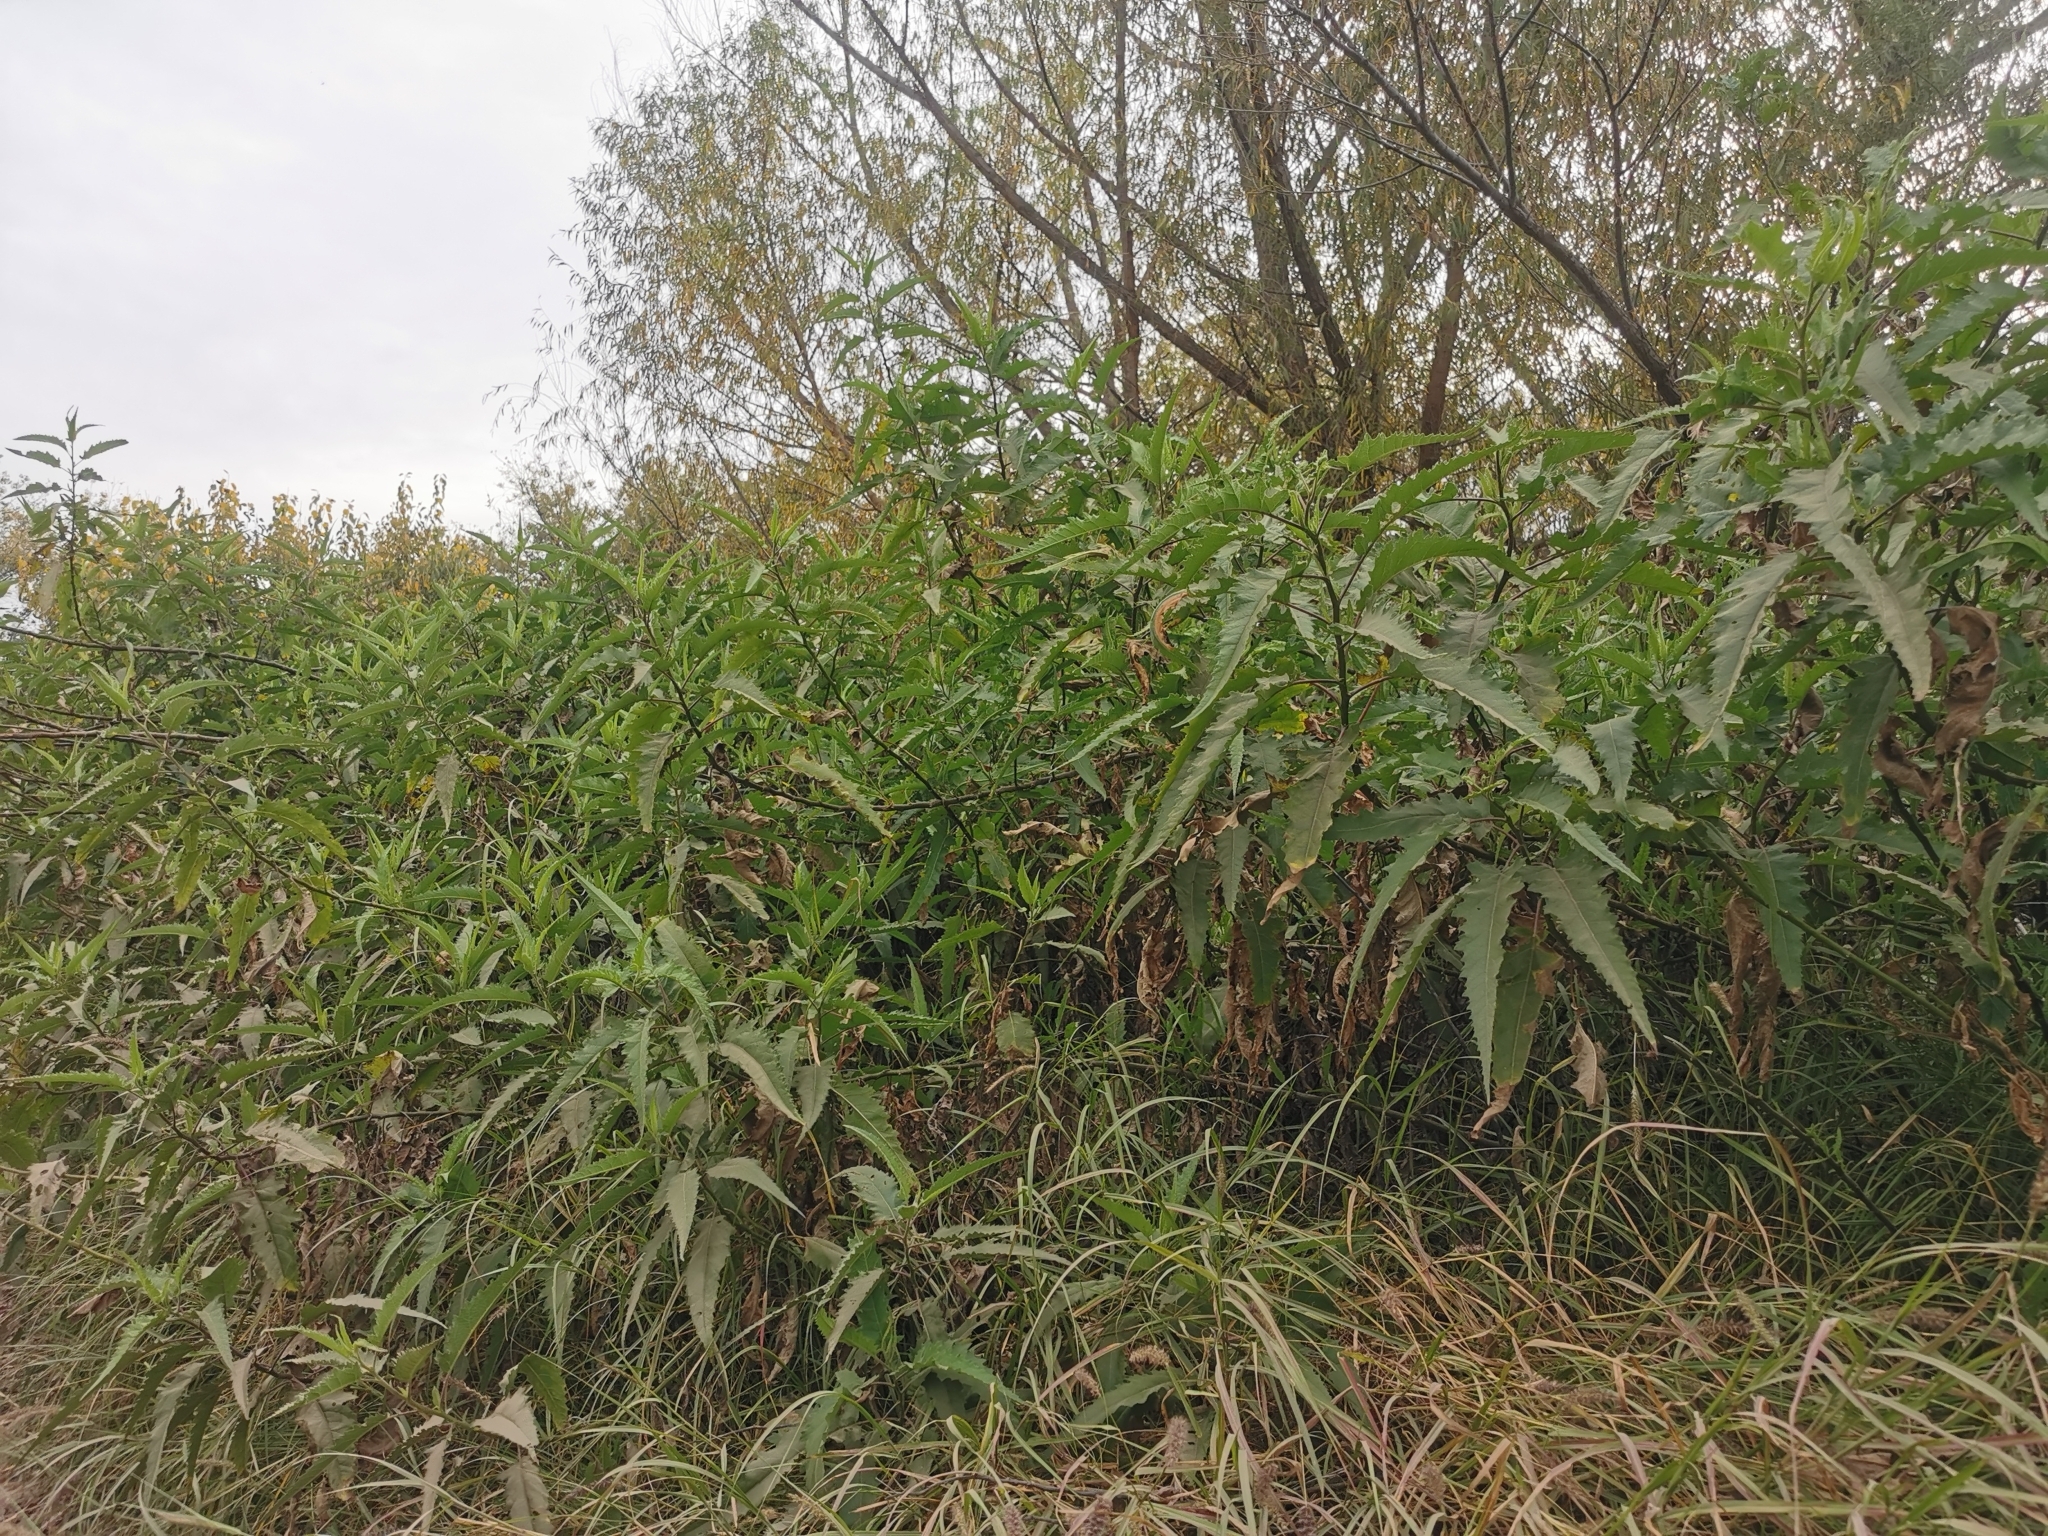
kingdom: Plantae
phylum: Tracheophyta
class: Magnoliopsida
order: Asterales
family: Asteraceae
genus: Ambrosia
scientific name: Ambrosia ambrosioides
